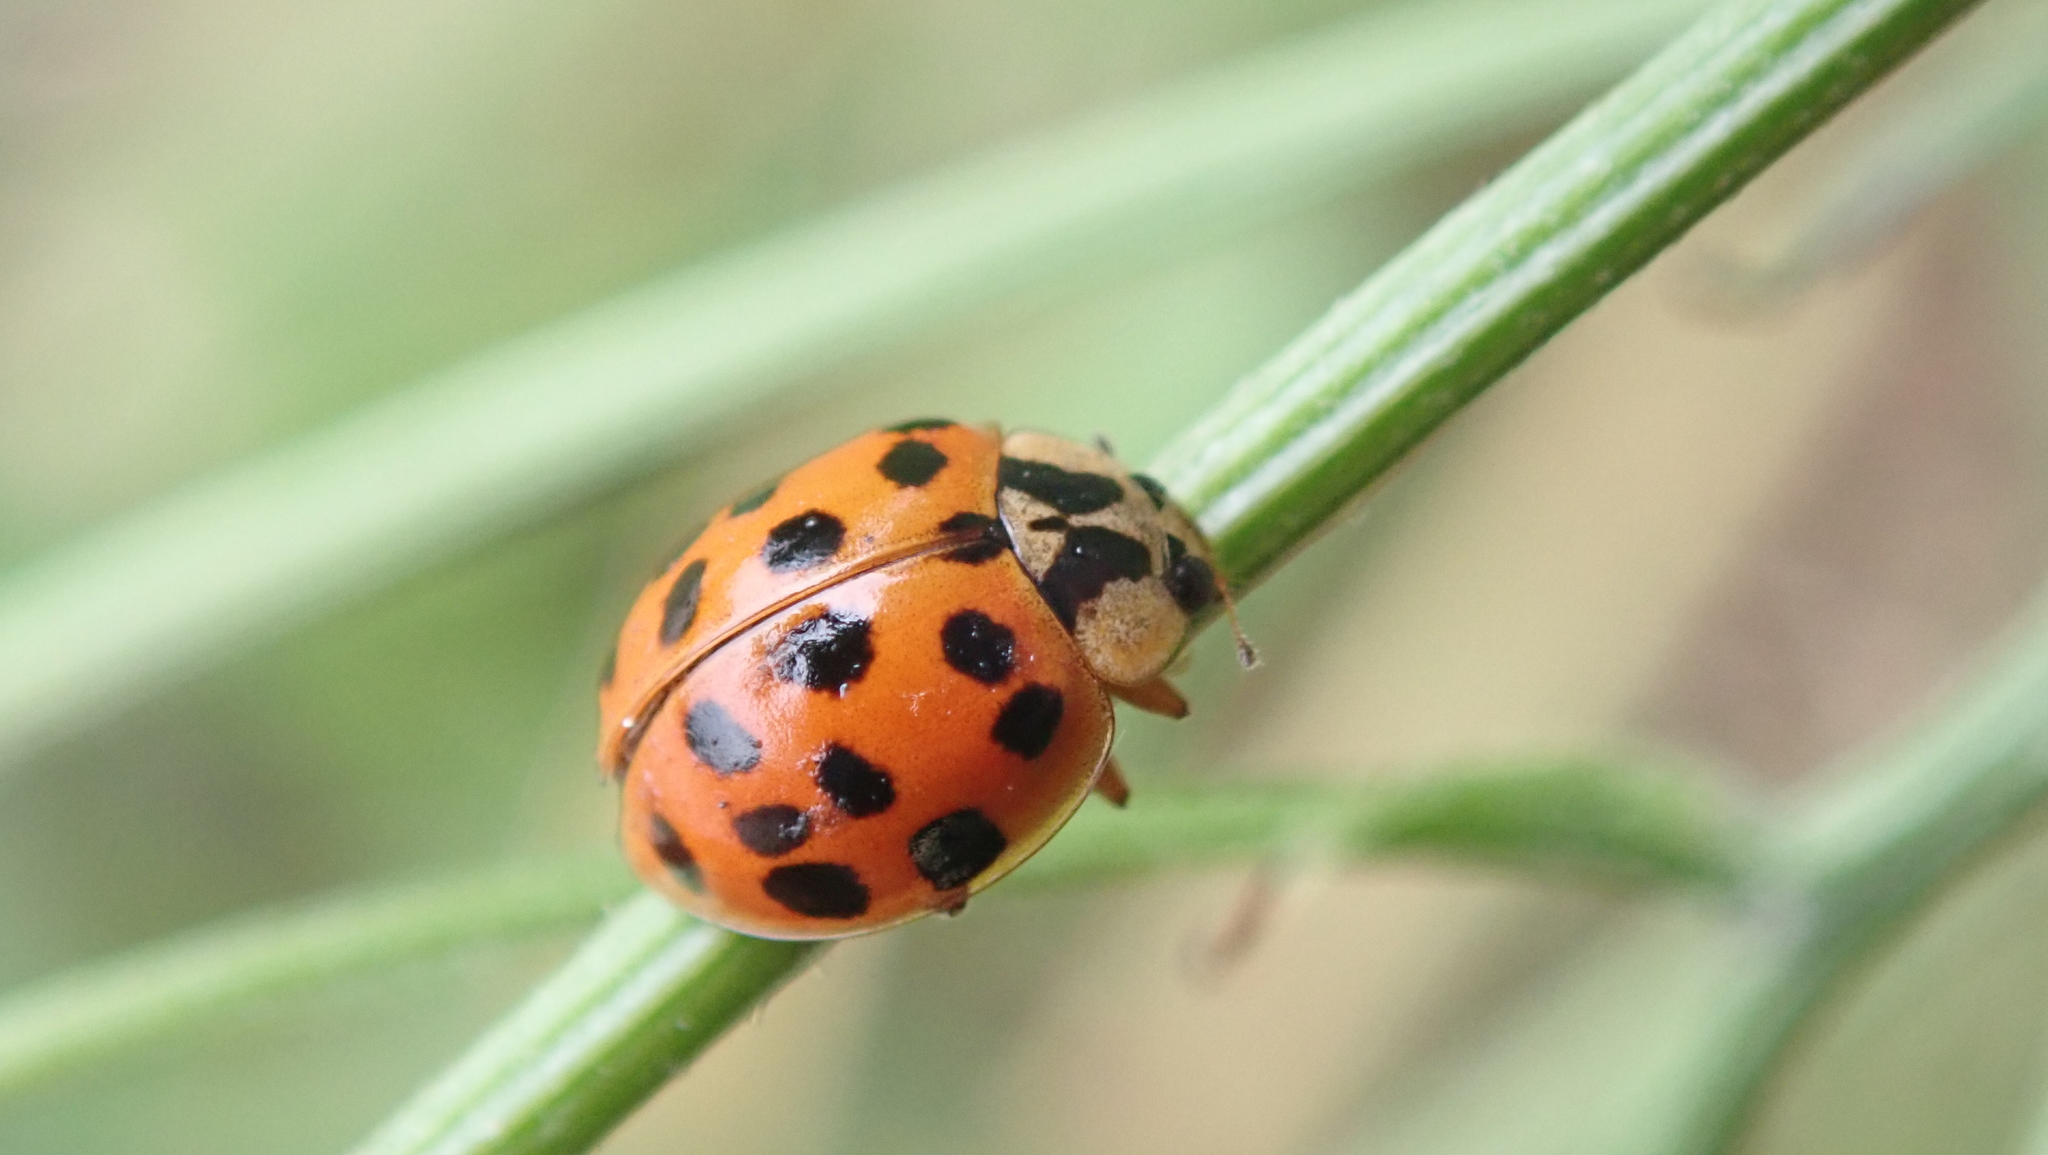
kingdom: Animalia
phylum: Arthropoda
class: Insecta
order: Coleoptera
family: Coccinellidae
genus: Harmonia
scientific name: Harmonia axyridis
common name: Harlequin ladybird
